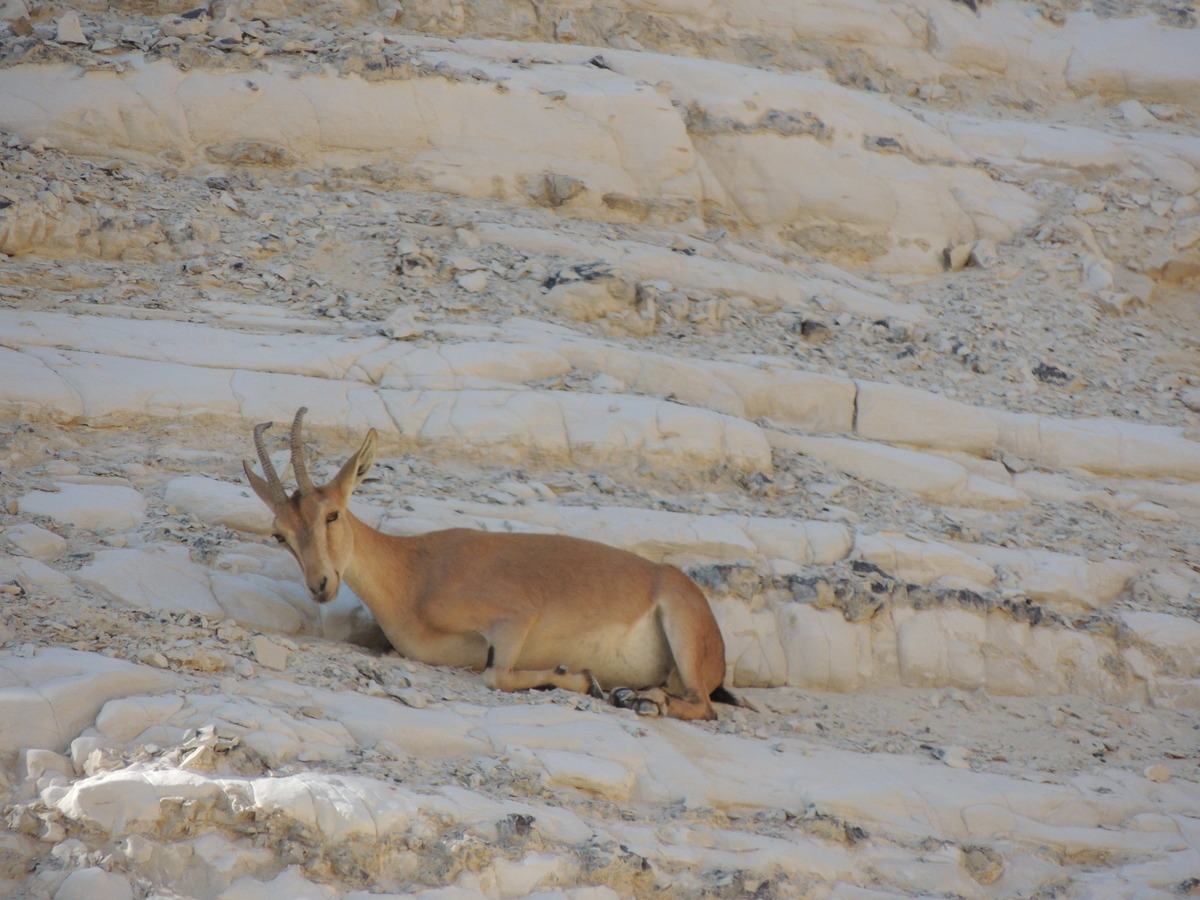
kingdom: Animalia
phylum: Chordata
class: Mammalia
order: Artiodactyla
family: Bovidae
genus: Capra
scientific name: Capra nubiana
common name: Nubian ibex
